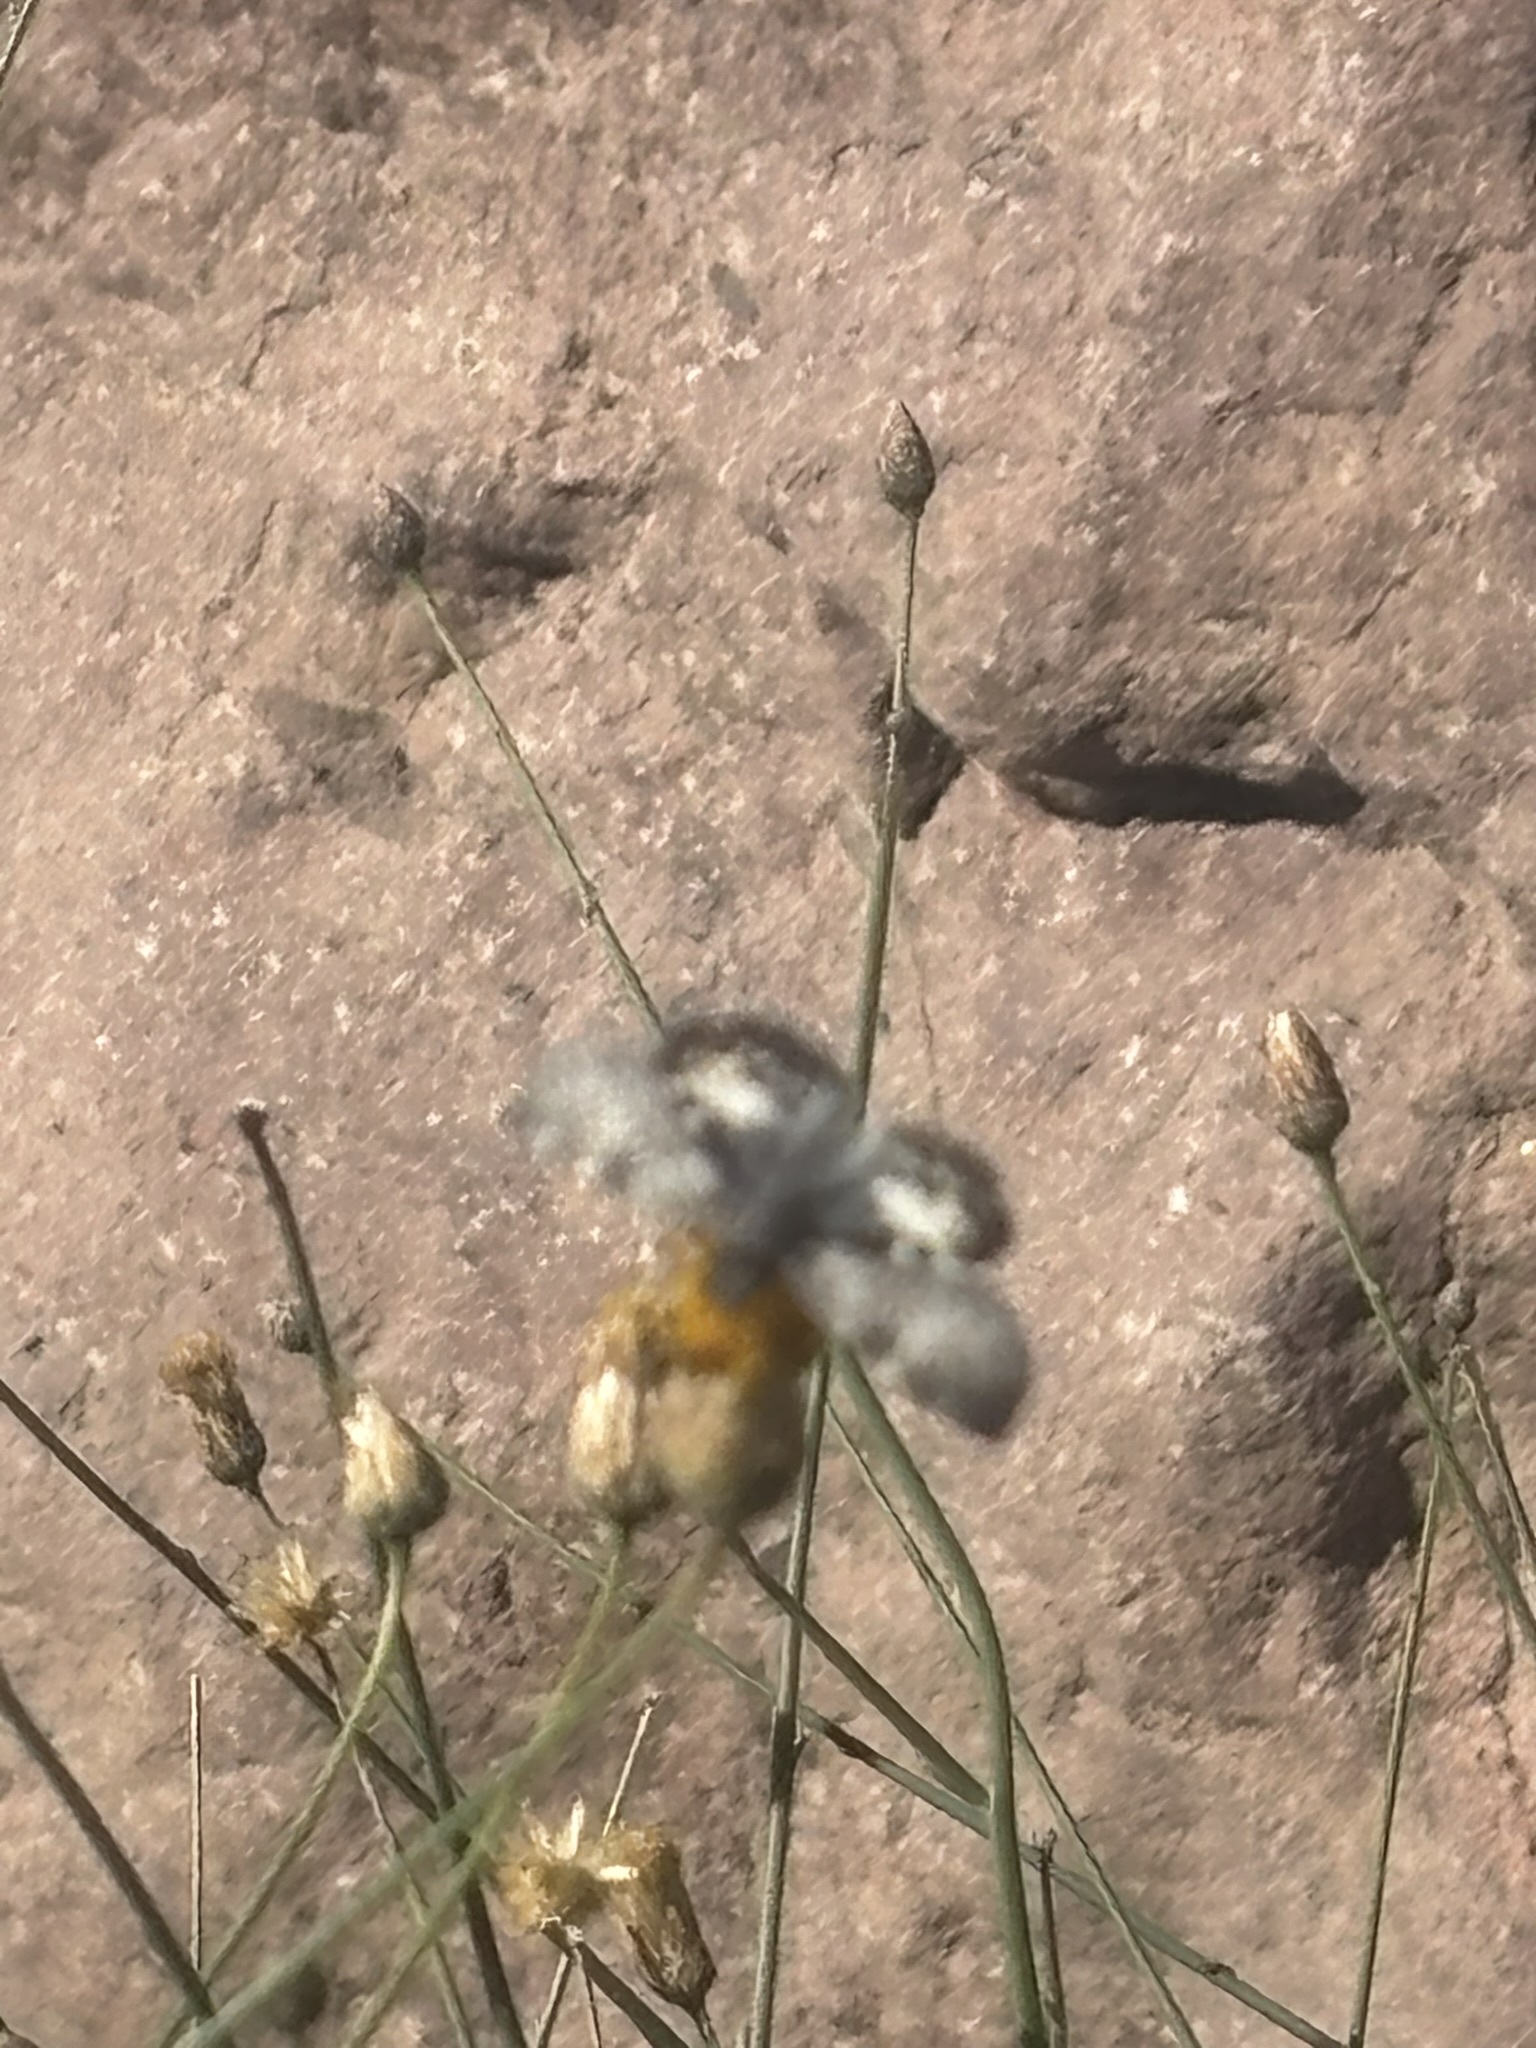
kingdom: Animalia
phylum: Arthropoda
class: Insecta
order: Lepidoptera
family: Hesperiidae
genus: Chiothion
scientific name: Chiothion georgina
